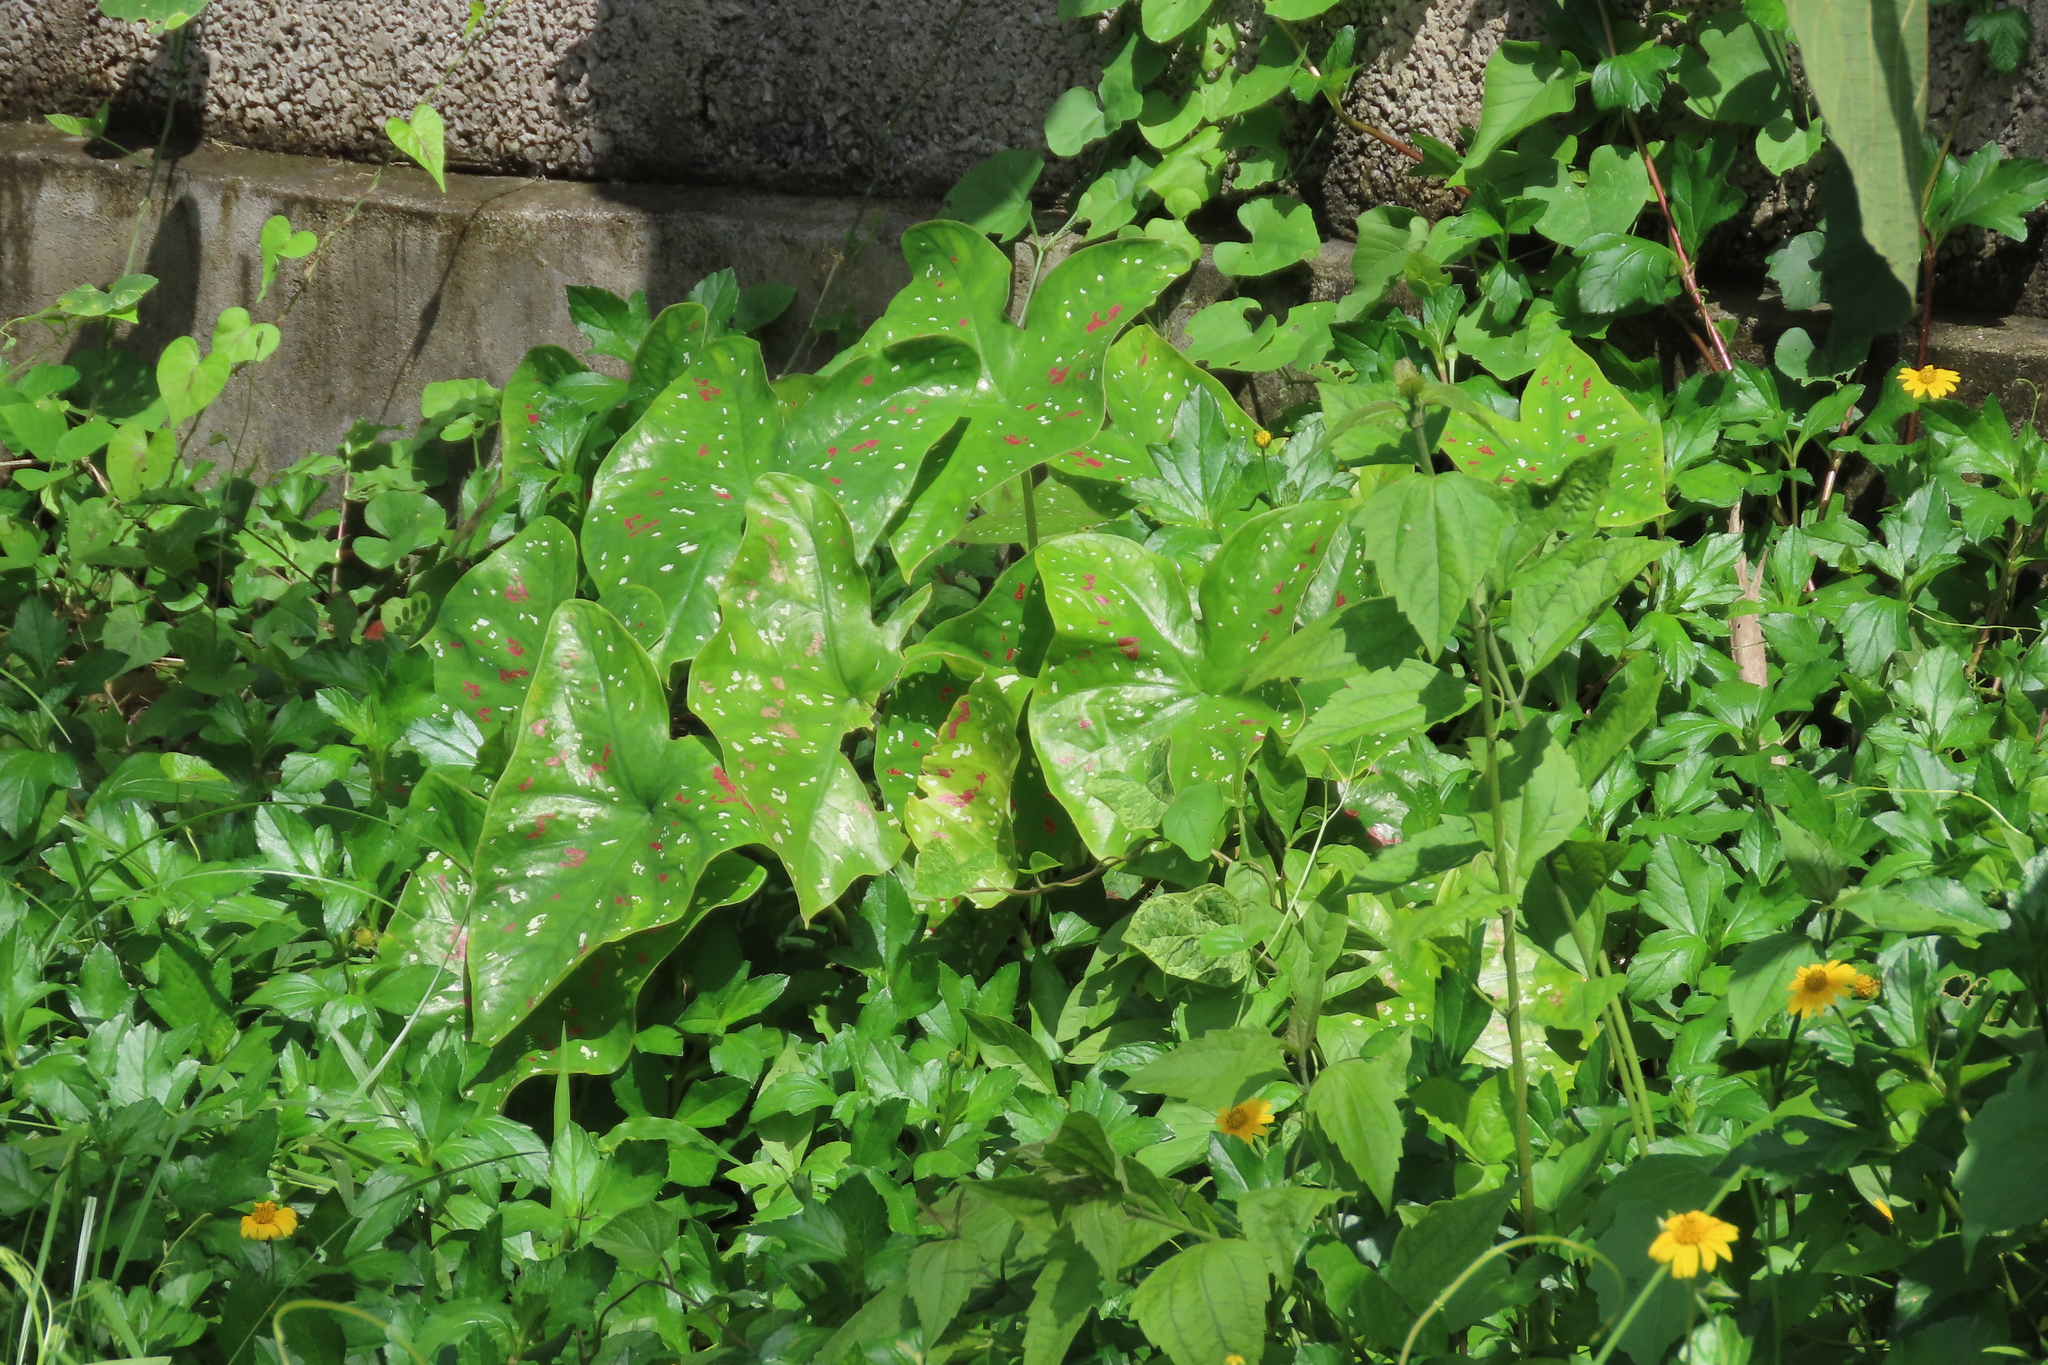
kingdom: Plantae
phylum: Tracheophyta
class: Liliopsida
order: Alismatales
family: Araceae
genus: Caladium
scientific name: Caladium bicolor
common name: Artist's pallet
